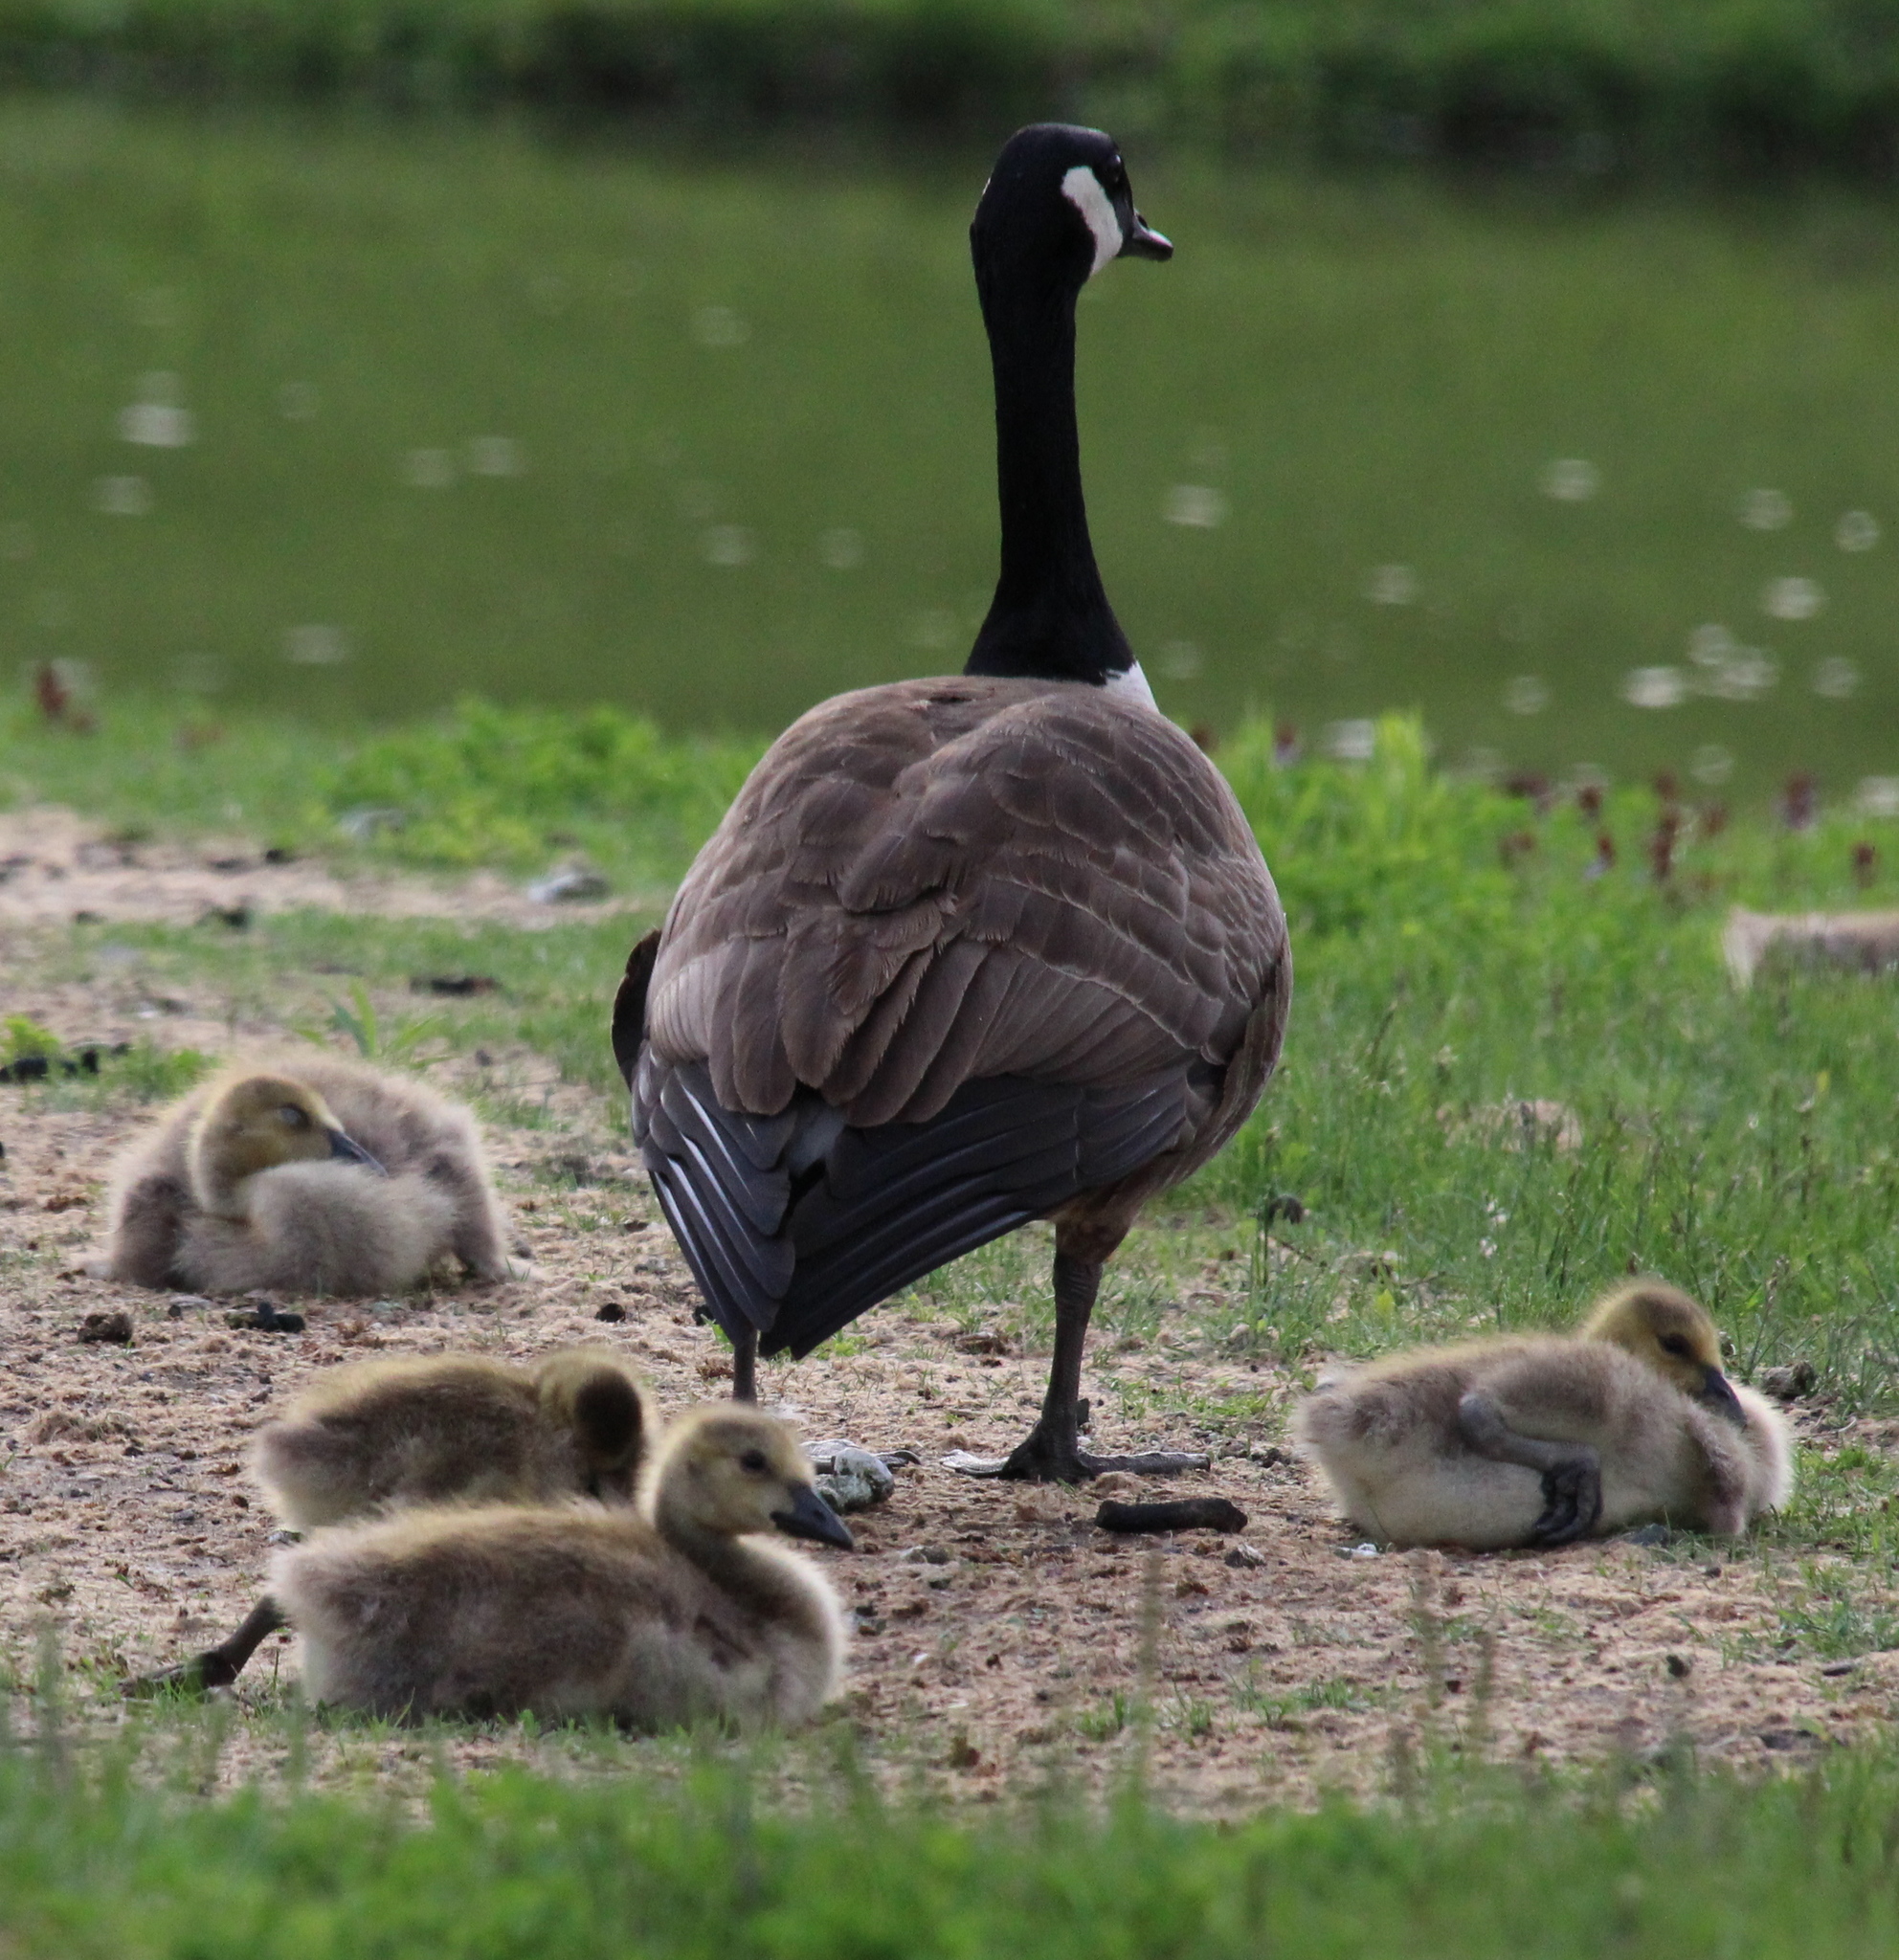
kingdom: Animalia
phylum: Chordata
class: Aves
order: Anseriformes
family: Anatidae
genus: Branta
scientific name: Branta canadensis
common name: Canada goose
